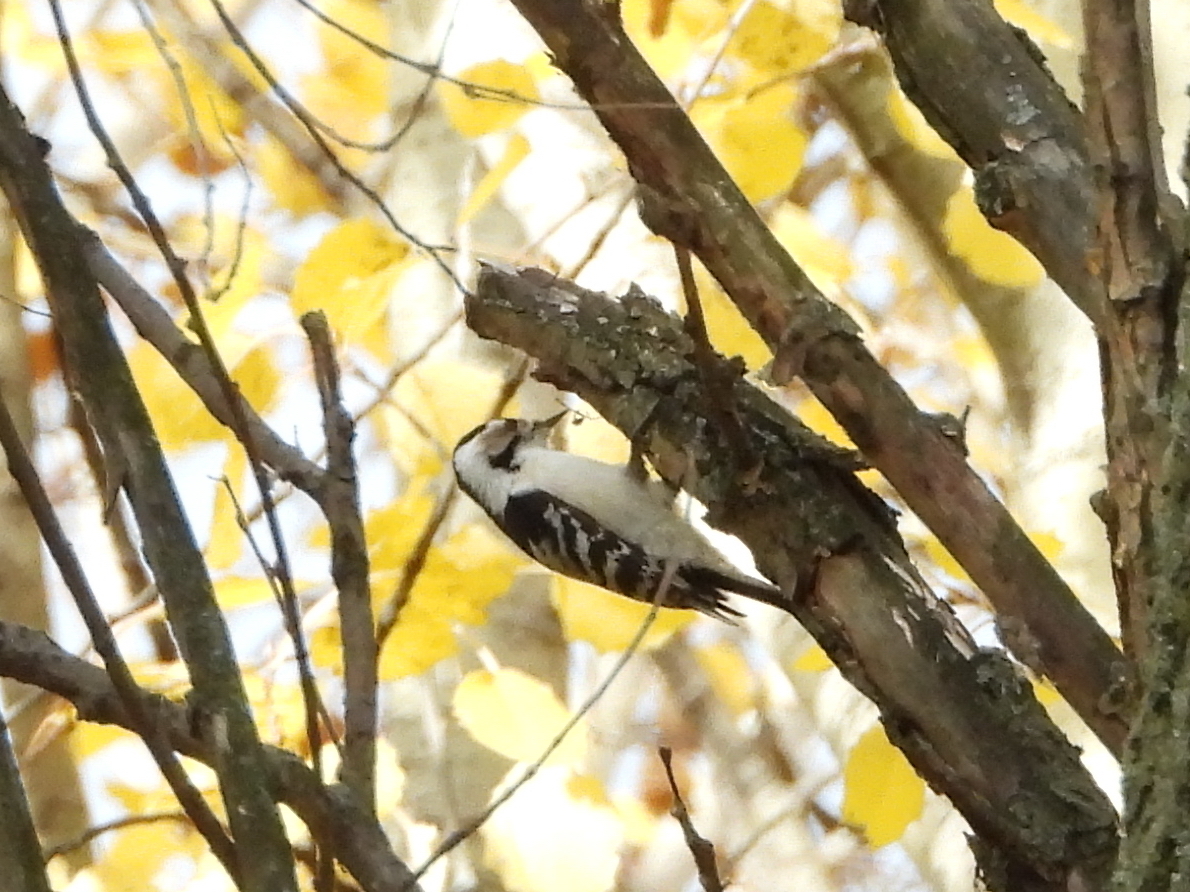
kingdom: Animalia
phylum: Chordata
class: Aves
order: Piciformes
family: Picidae
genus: Dryobates
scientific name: Dryobates minor
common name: Lesser spotted woodpecker
